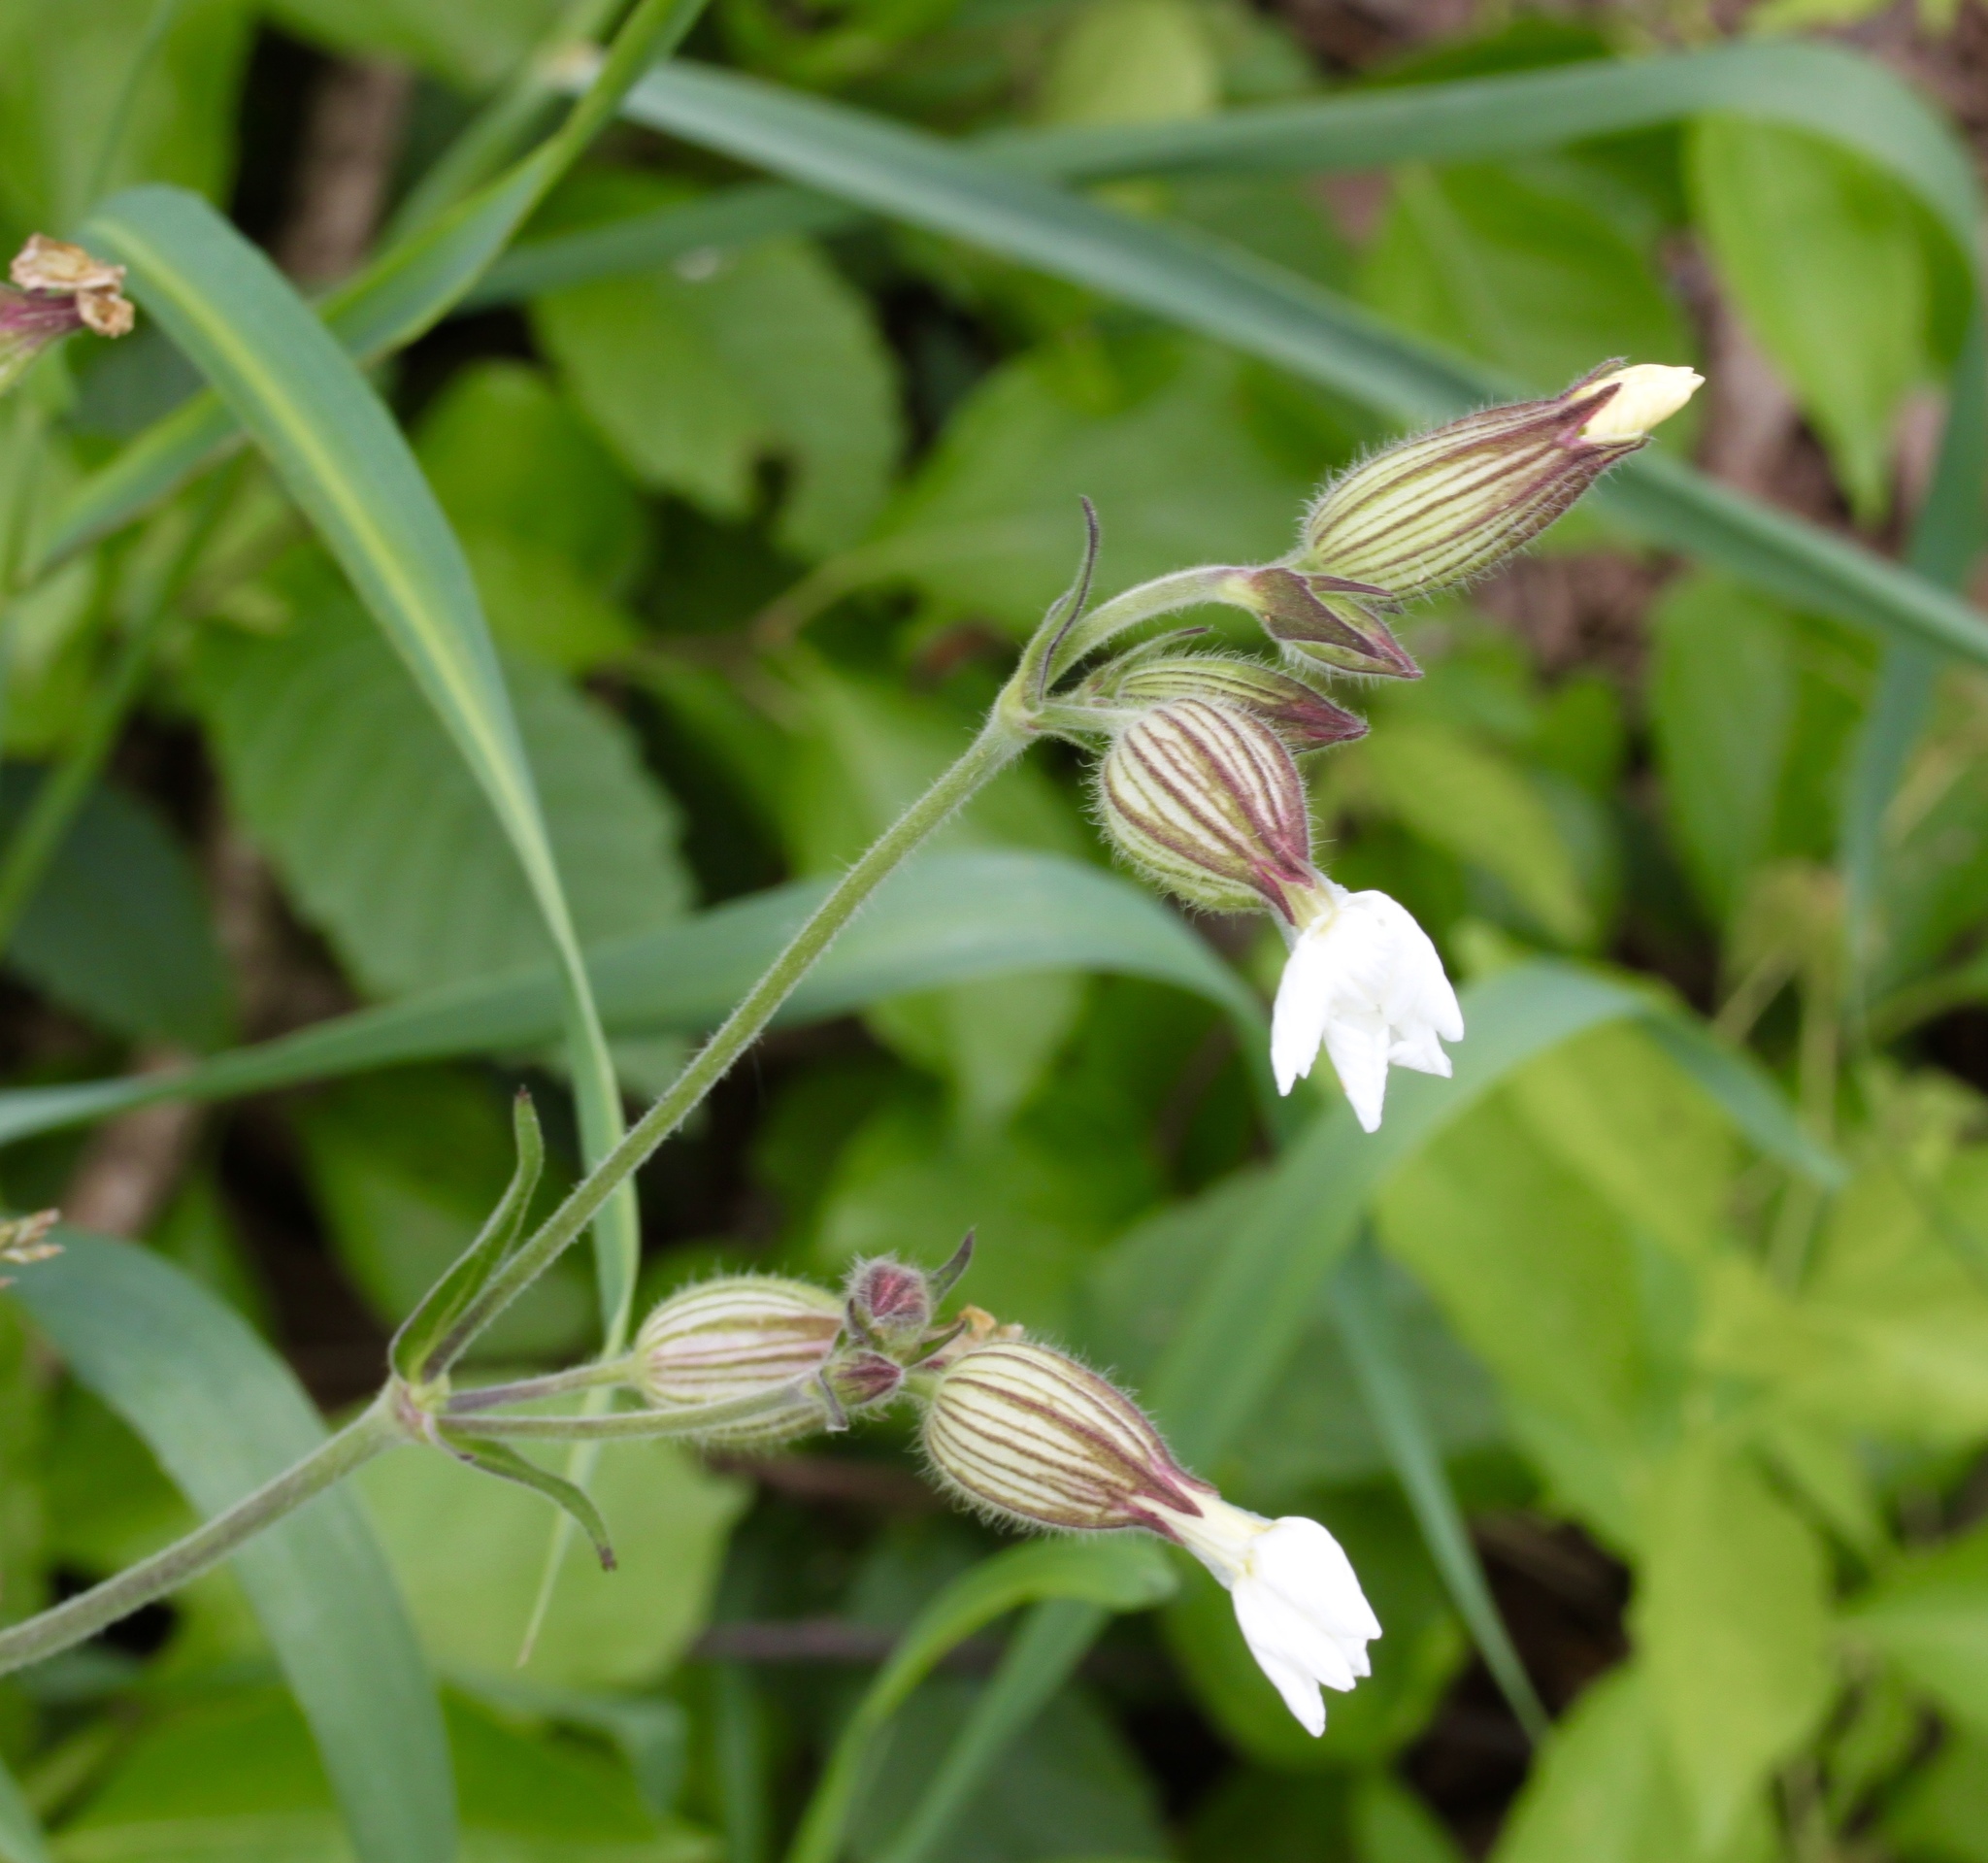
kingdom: Plantae
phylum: Tracheophyta
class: Magnoliopsida
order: Caryophyllales
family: Caryophyllaceae
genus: Silene
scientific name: Silene latifolia
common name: White campion
